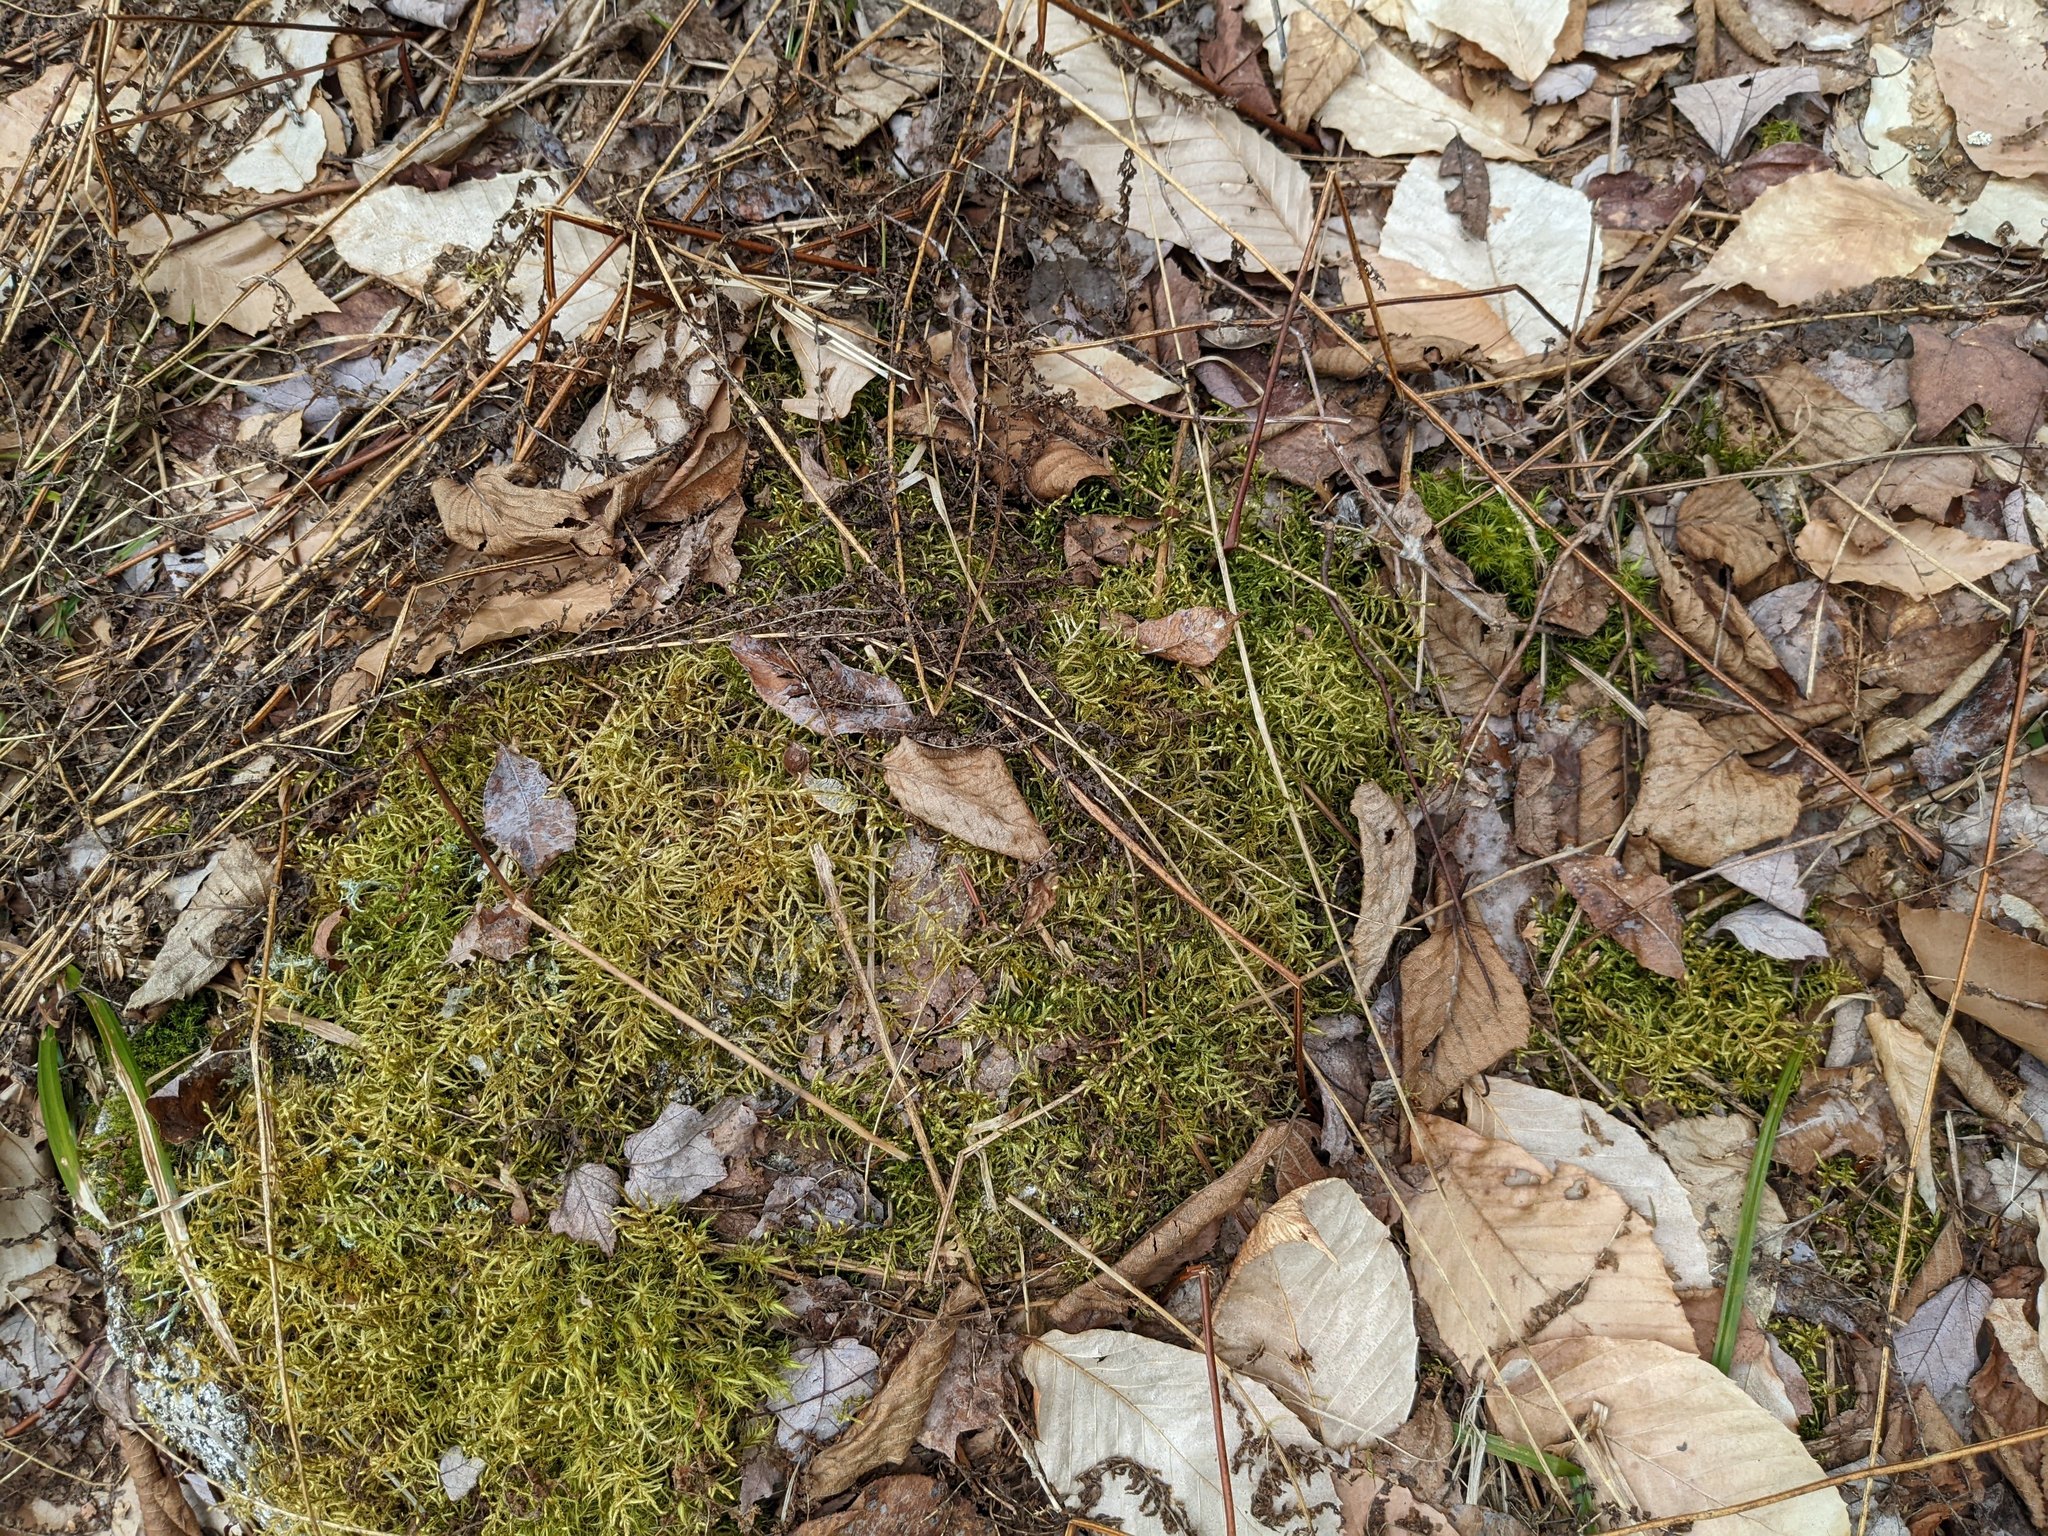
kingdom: Plantae
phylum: Tracheophyta
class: Magnoliopsida
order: Fagales
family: Fagaceae
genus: Fagus
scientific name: Fagus grandifolia
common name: American beech
